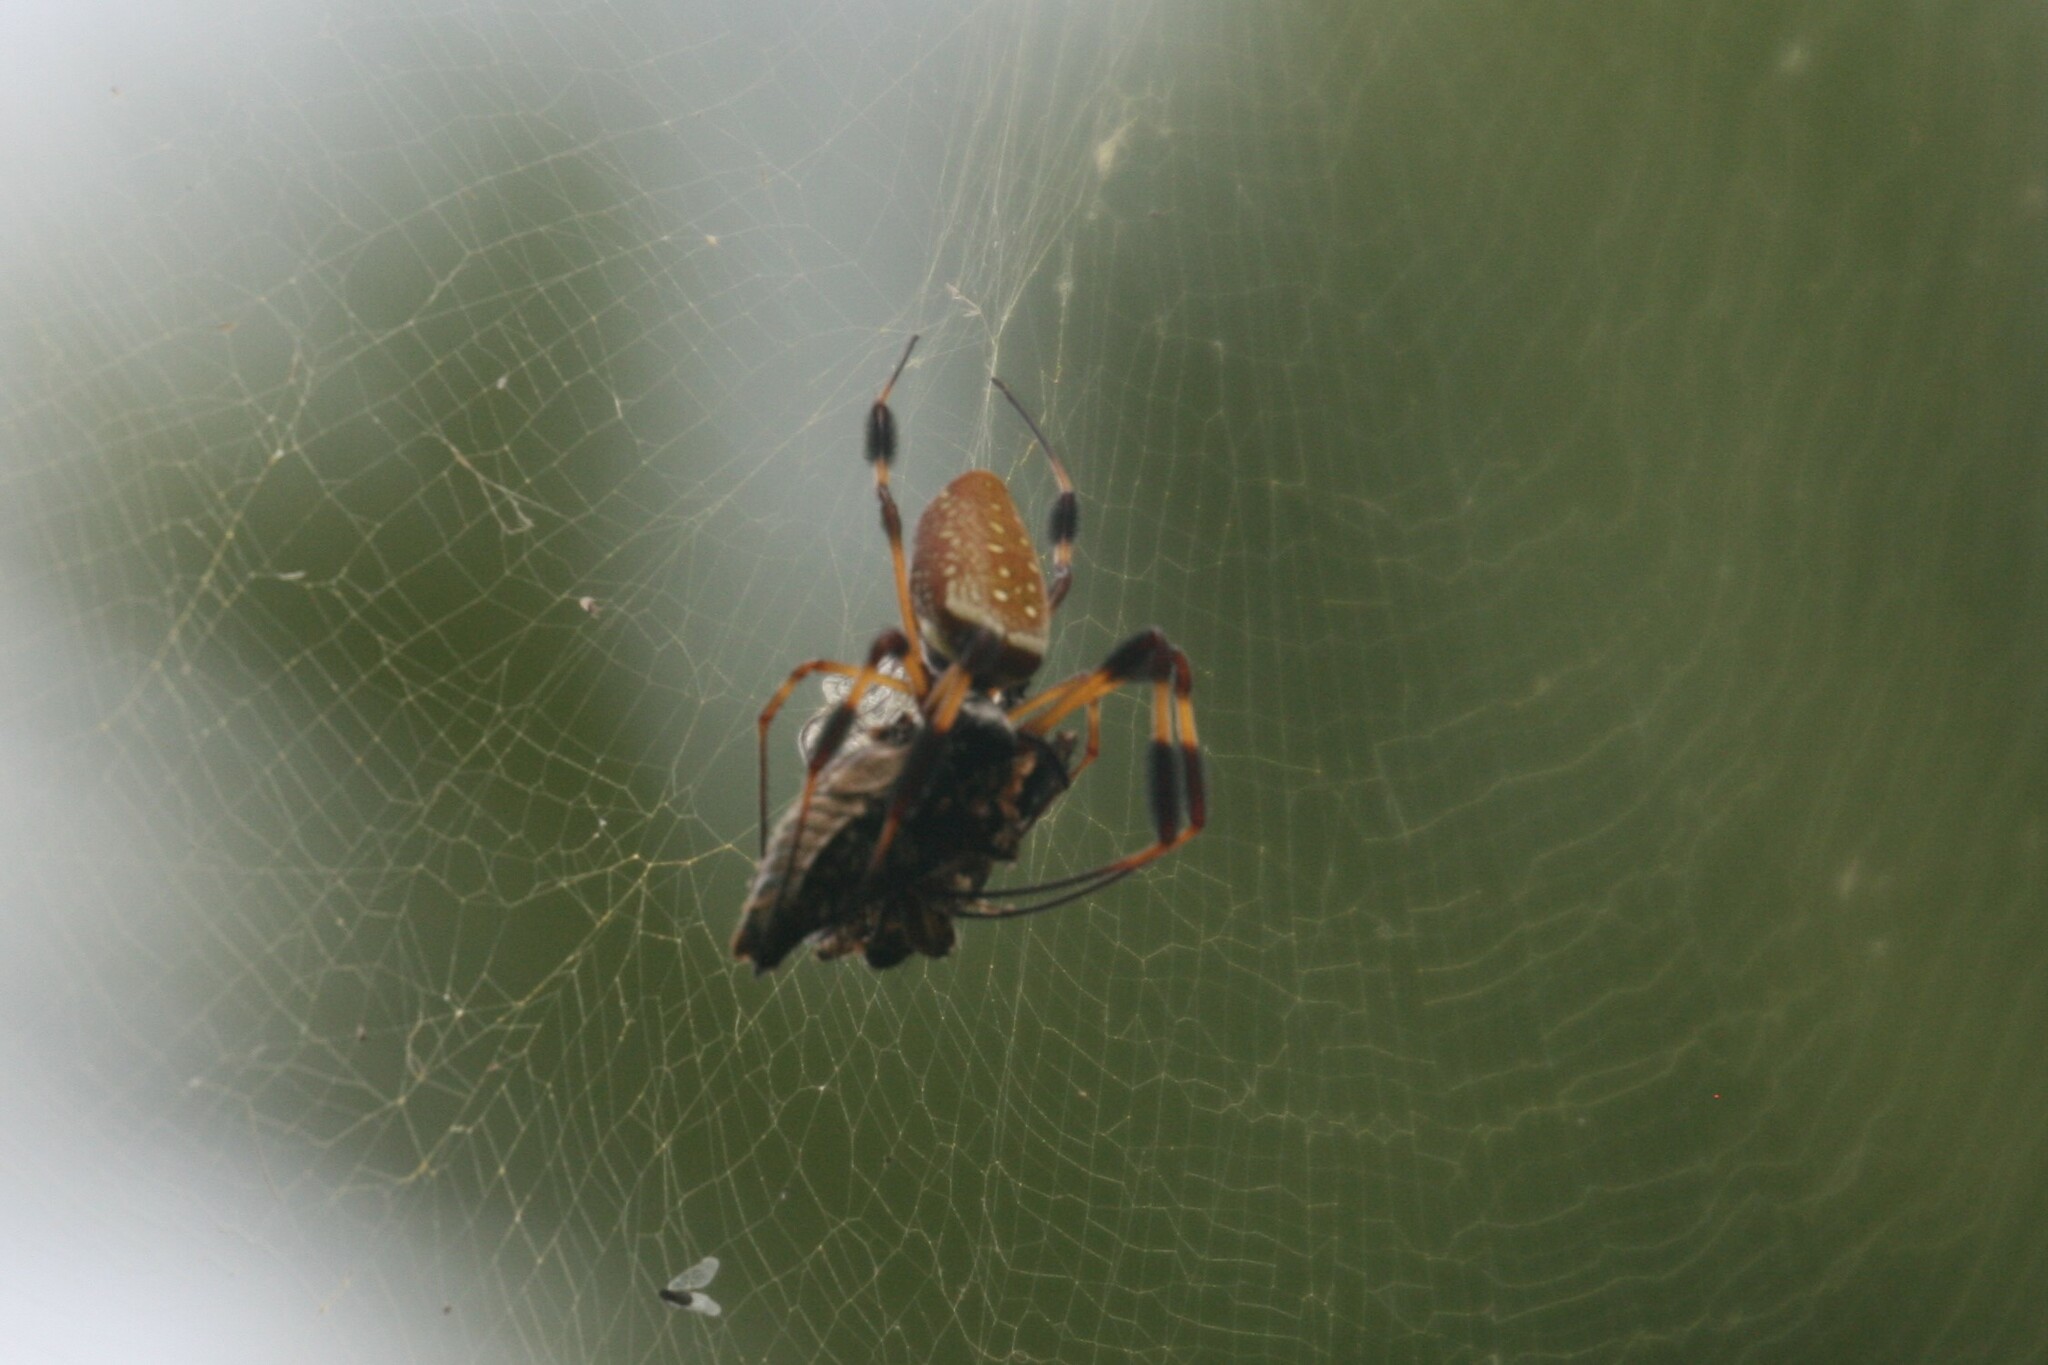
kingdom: Animalia
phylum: Arthropoda
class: Arachnida
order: Araneae
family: Araneidae
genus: Trichonephila
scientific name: Trichonephila clavipes
